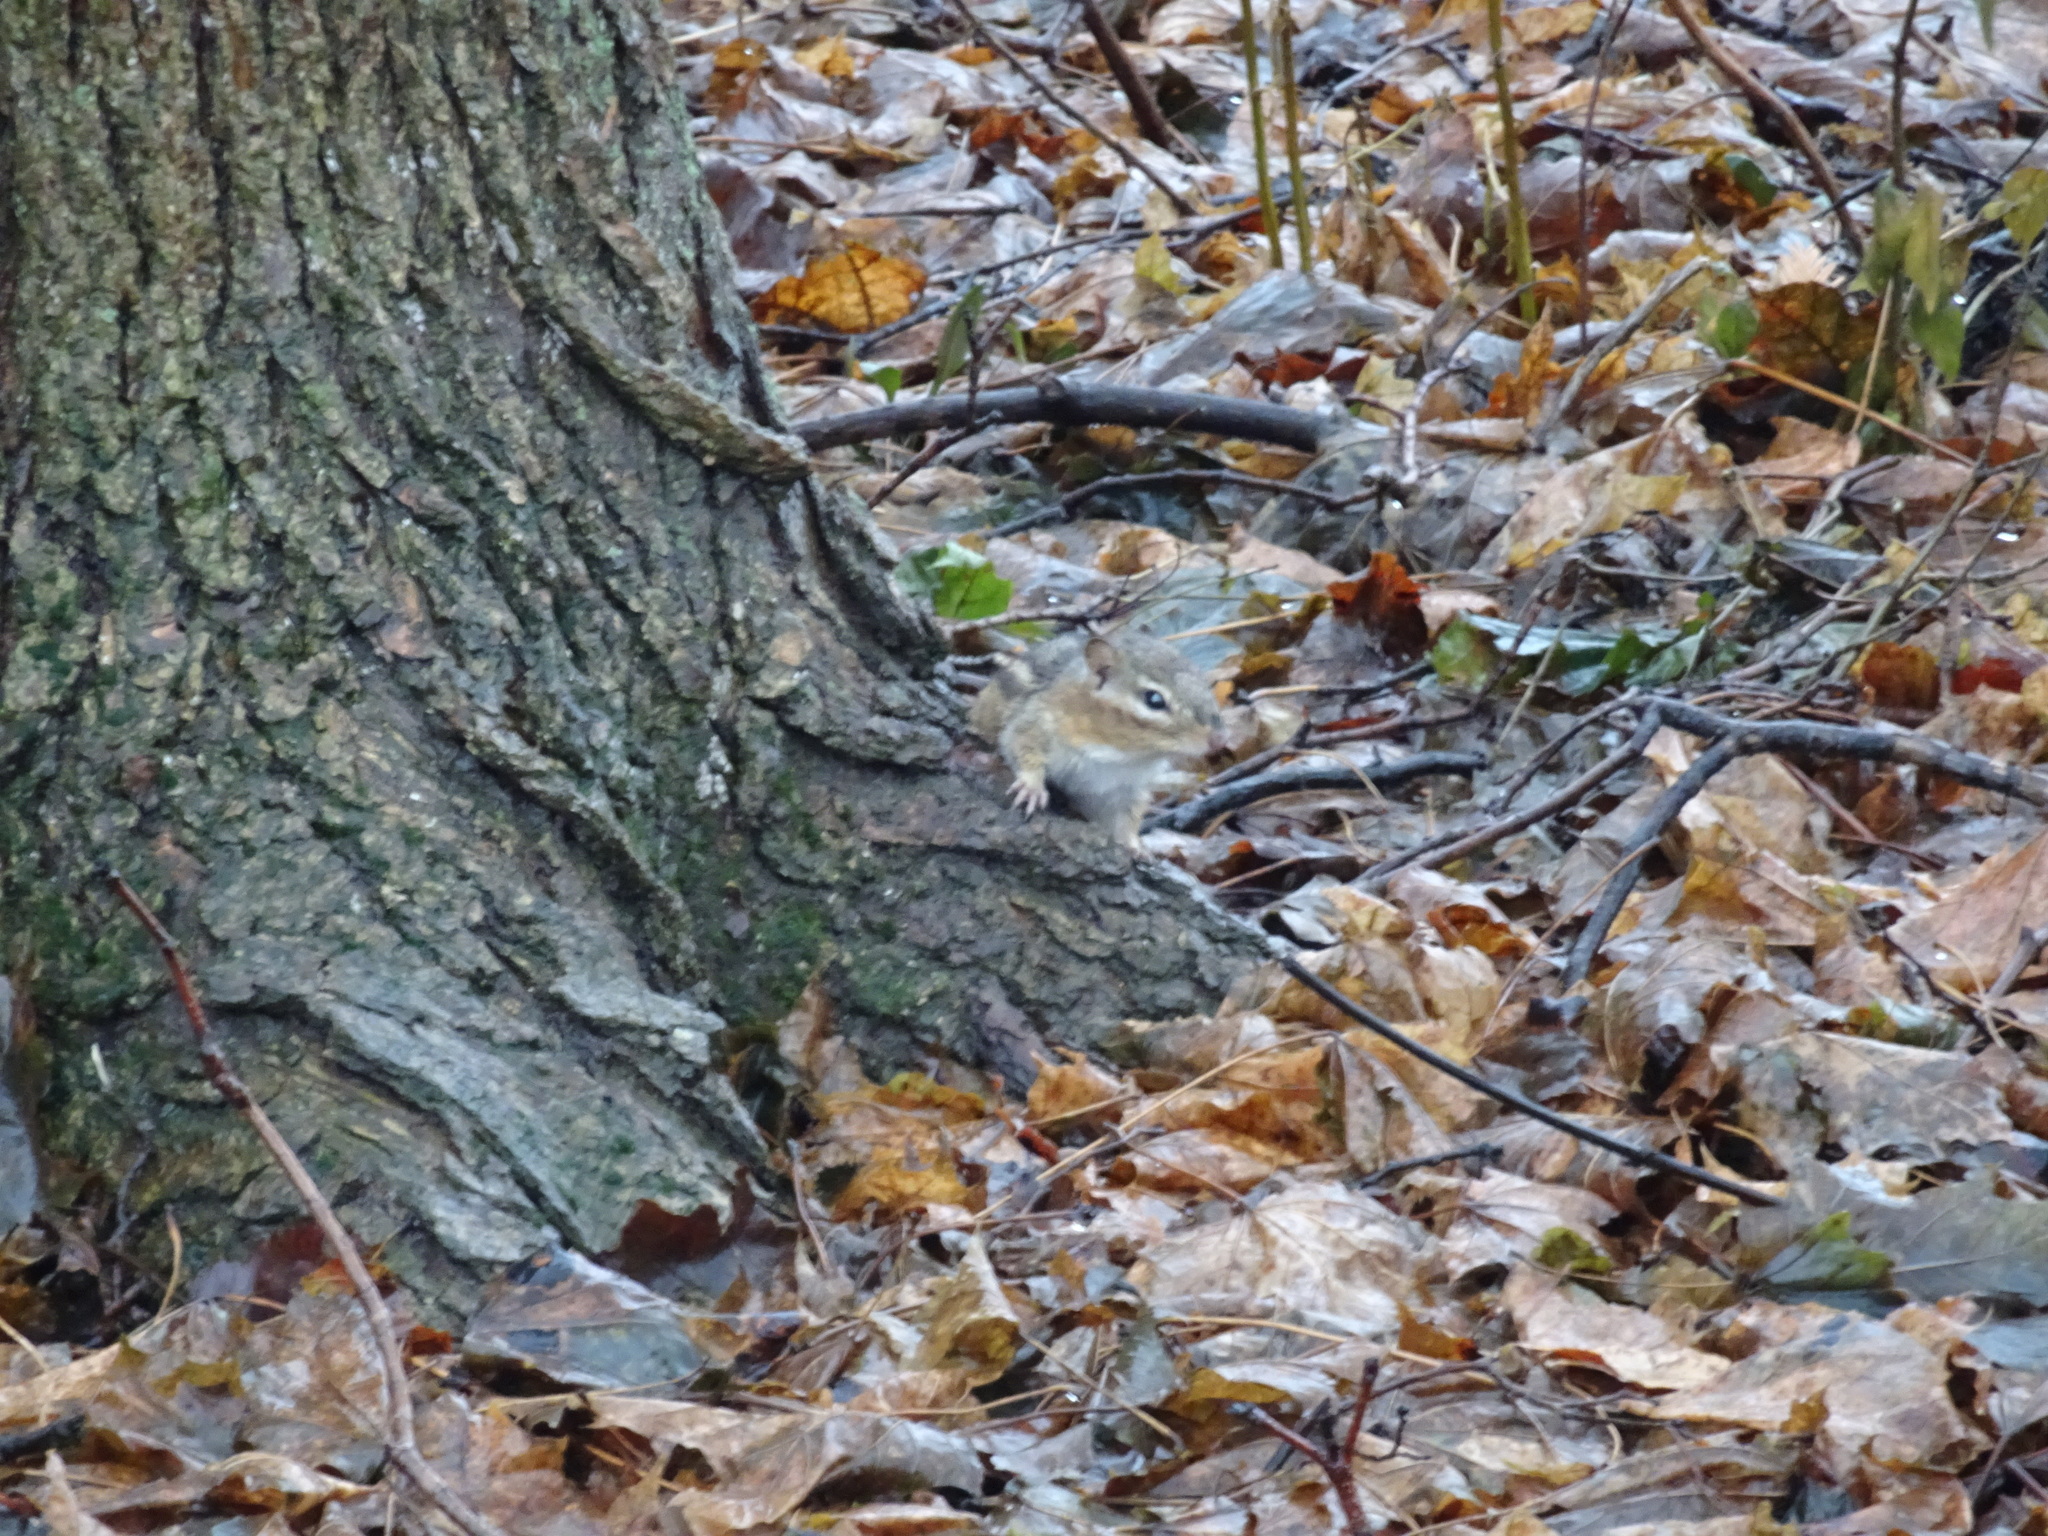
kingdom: Animalia
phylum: Chordata
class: Mammalia
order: Rodentia
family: Sciuridae
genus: Tamias
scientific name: Tamias striatus
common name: Eastern chipmunk
